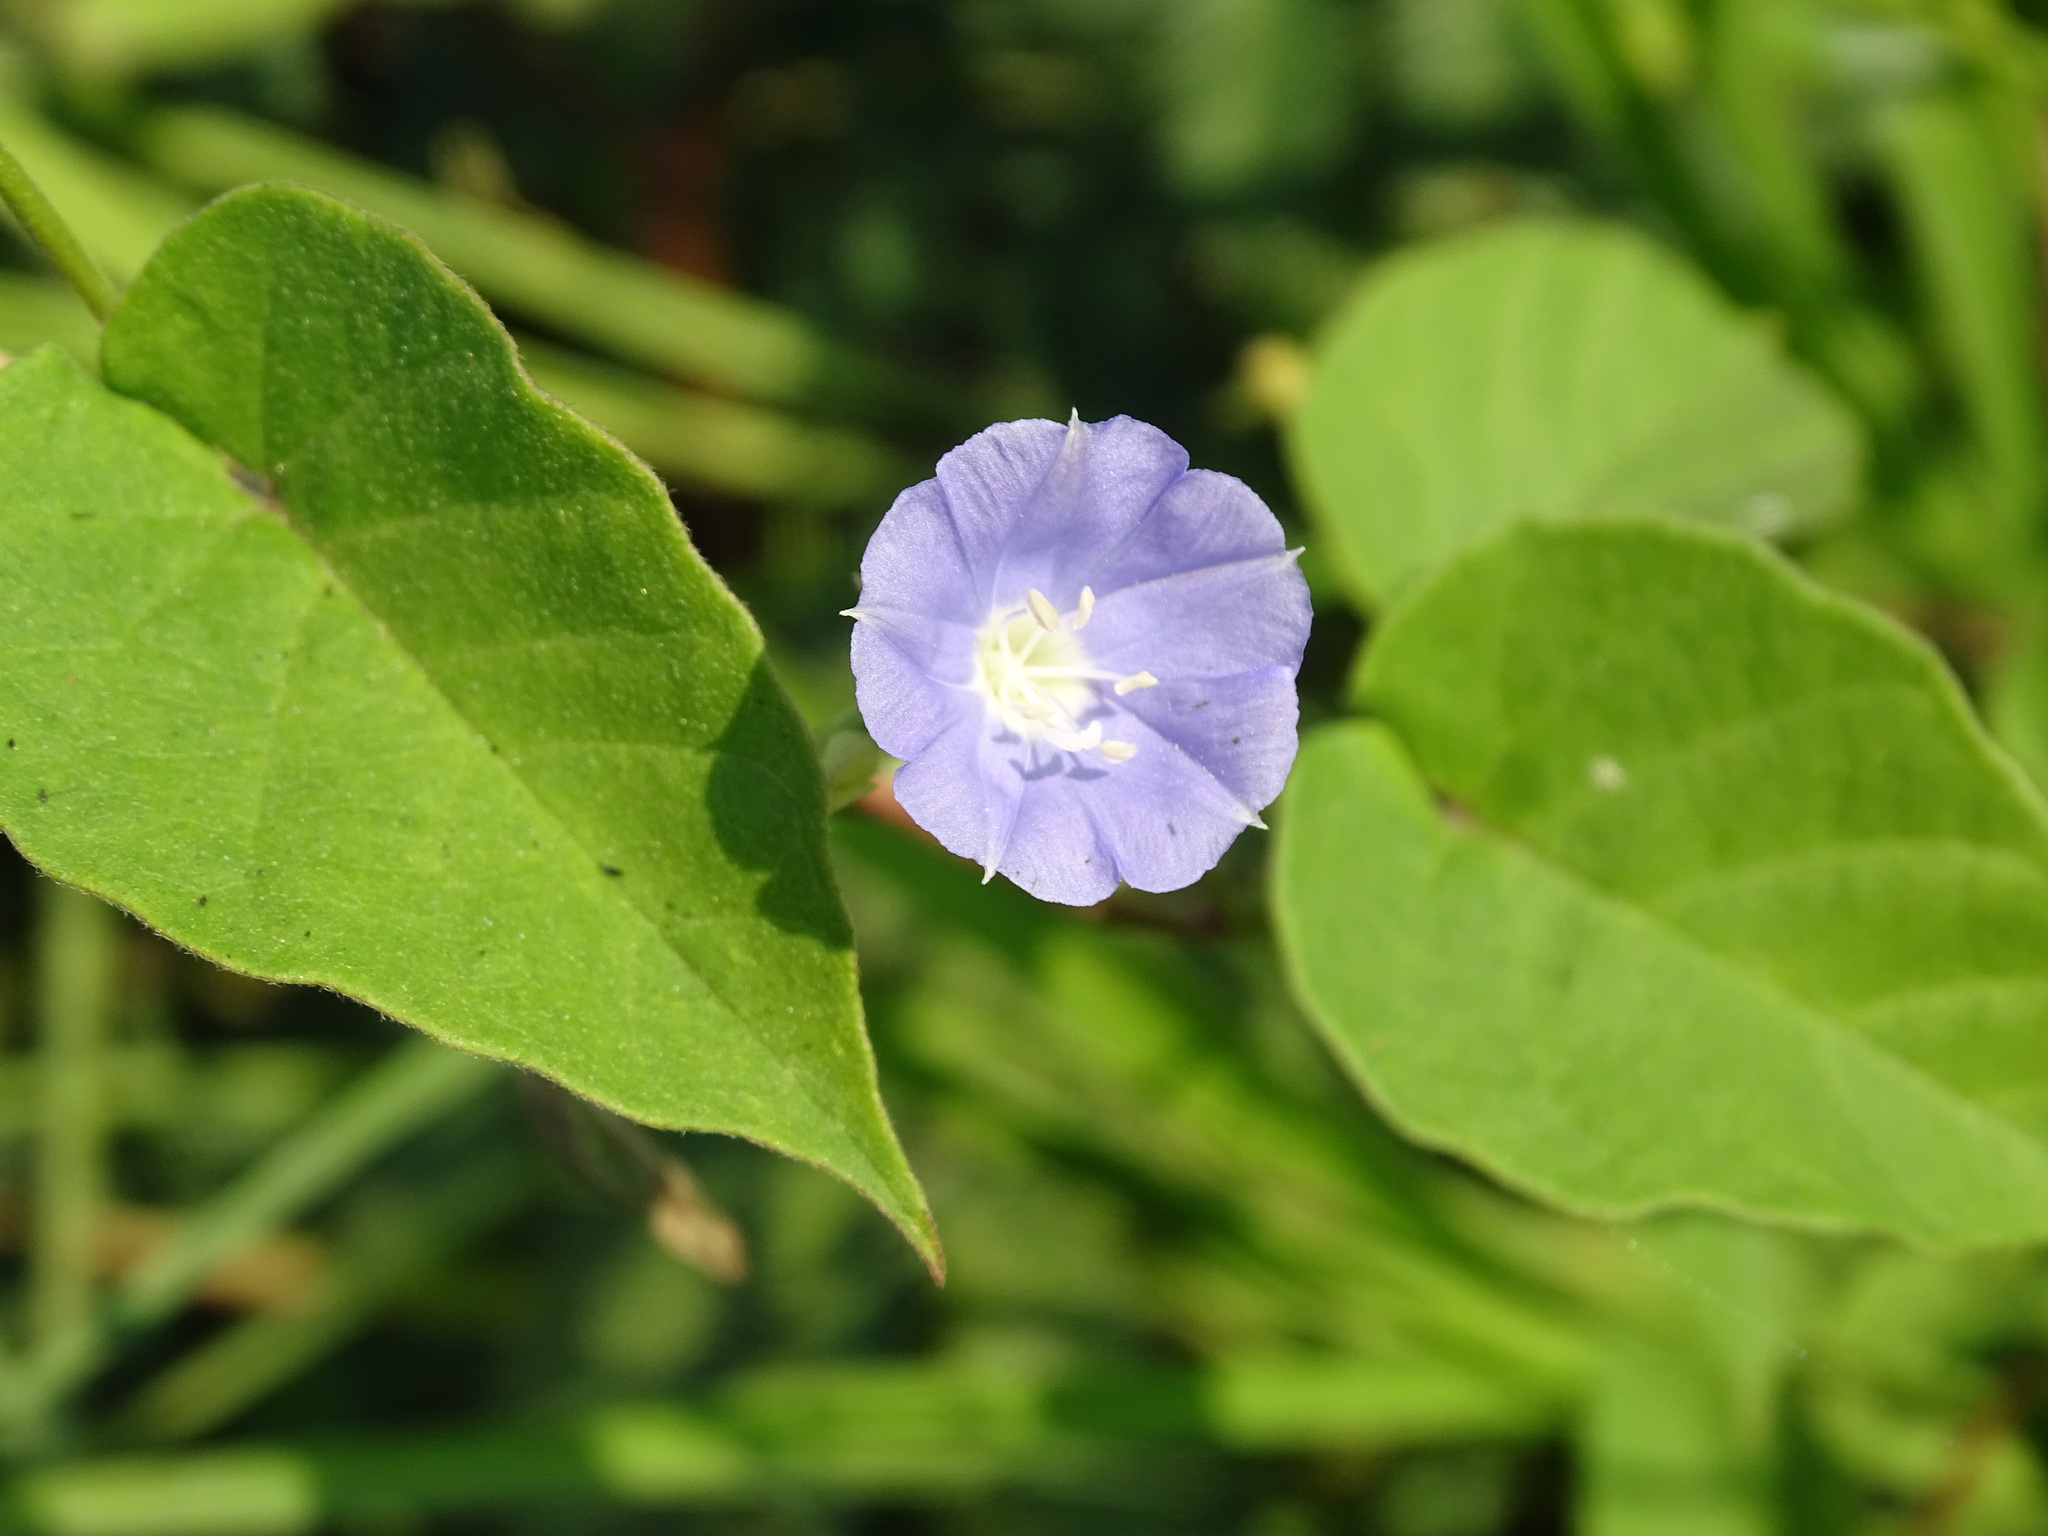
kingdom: Plantae
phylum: Tracheophyta
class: Magnoliopsida
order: Solanales
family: Convolvulaceae
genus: Jacquemontia
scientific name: Jacquemontia oaxacana
